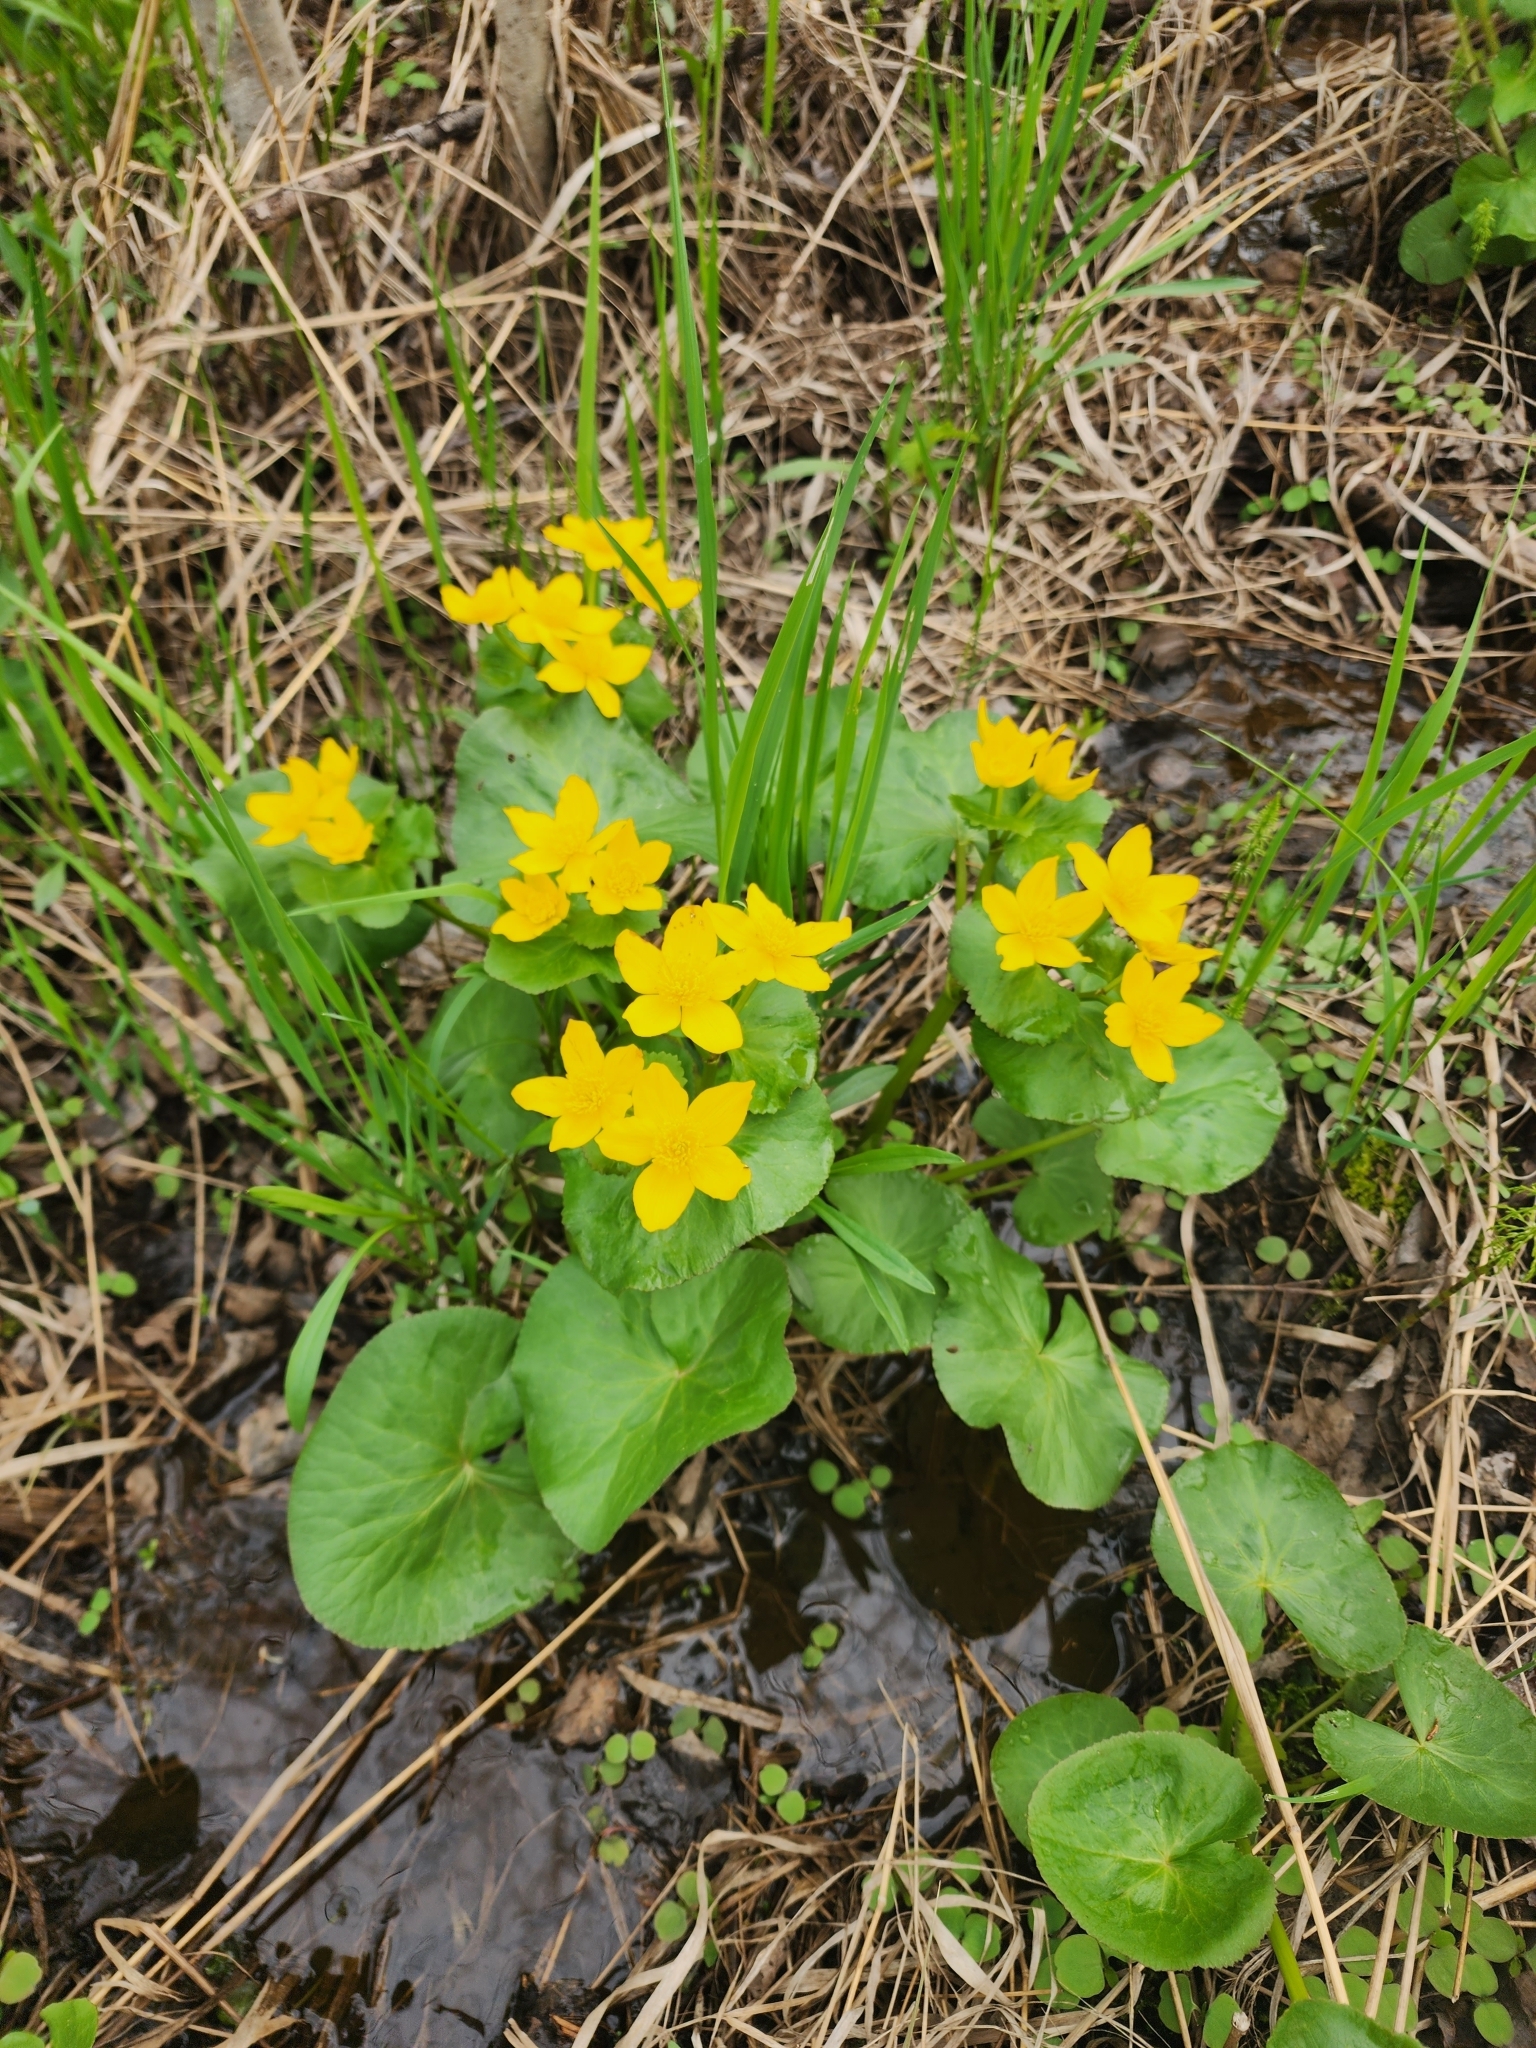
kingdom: Plantae
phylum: Tracheophyta
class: Magnoliopsida
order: Ranunculales
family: Ranunculaceae
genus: Caltha
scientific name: Caltha palustris
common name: Marsh marigold
